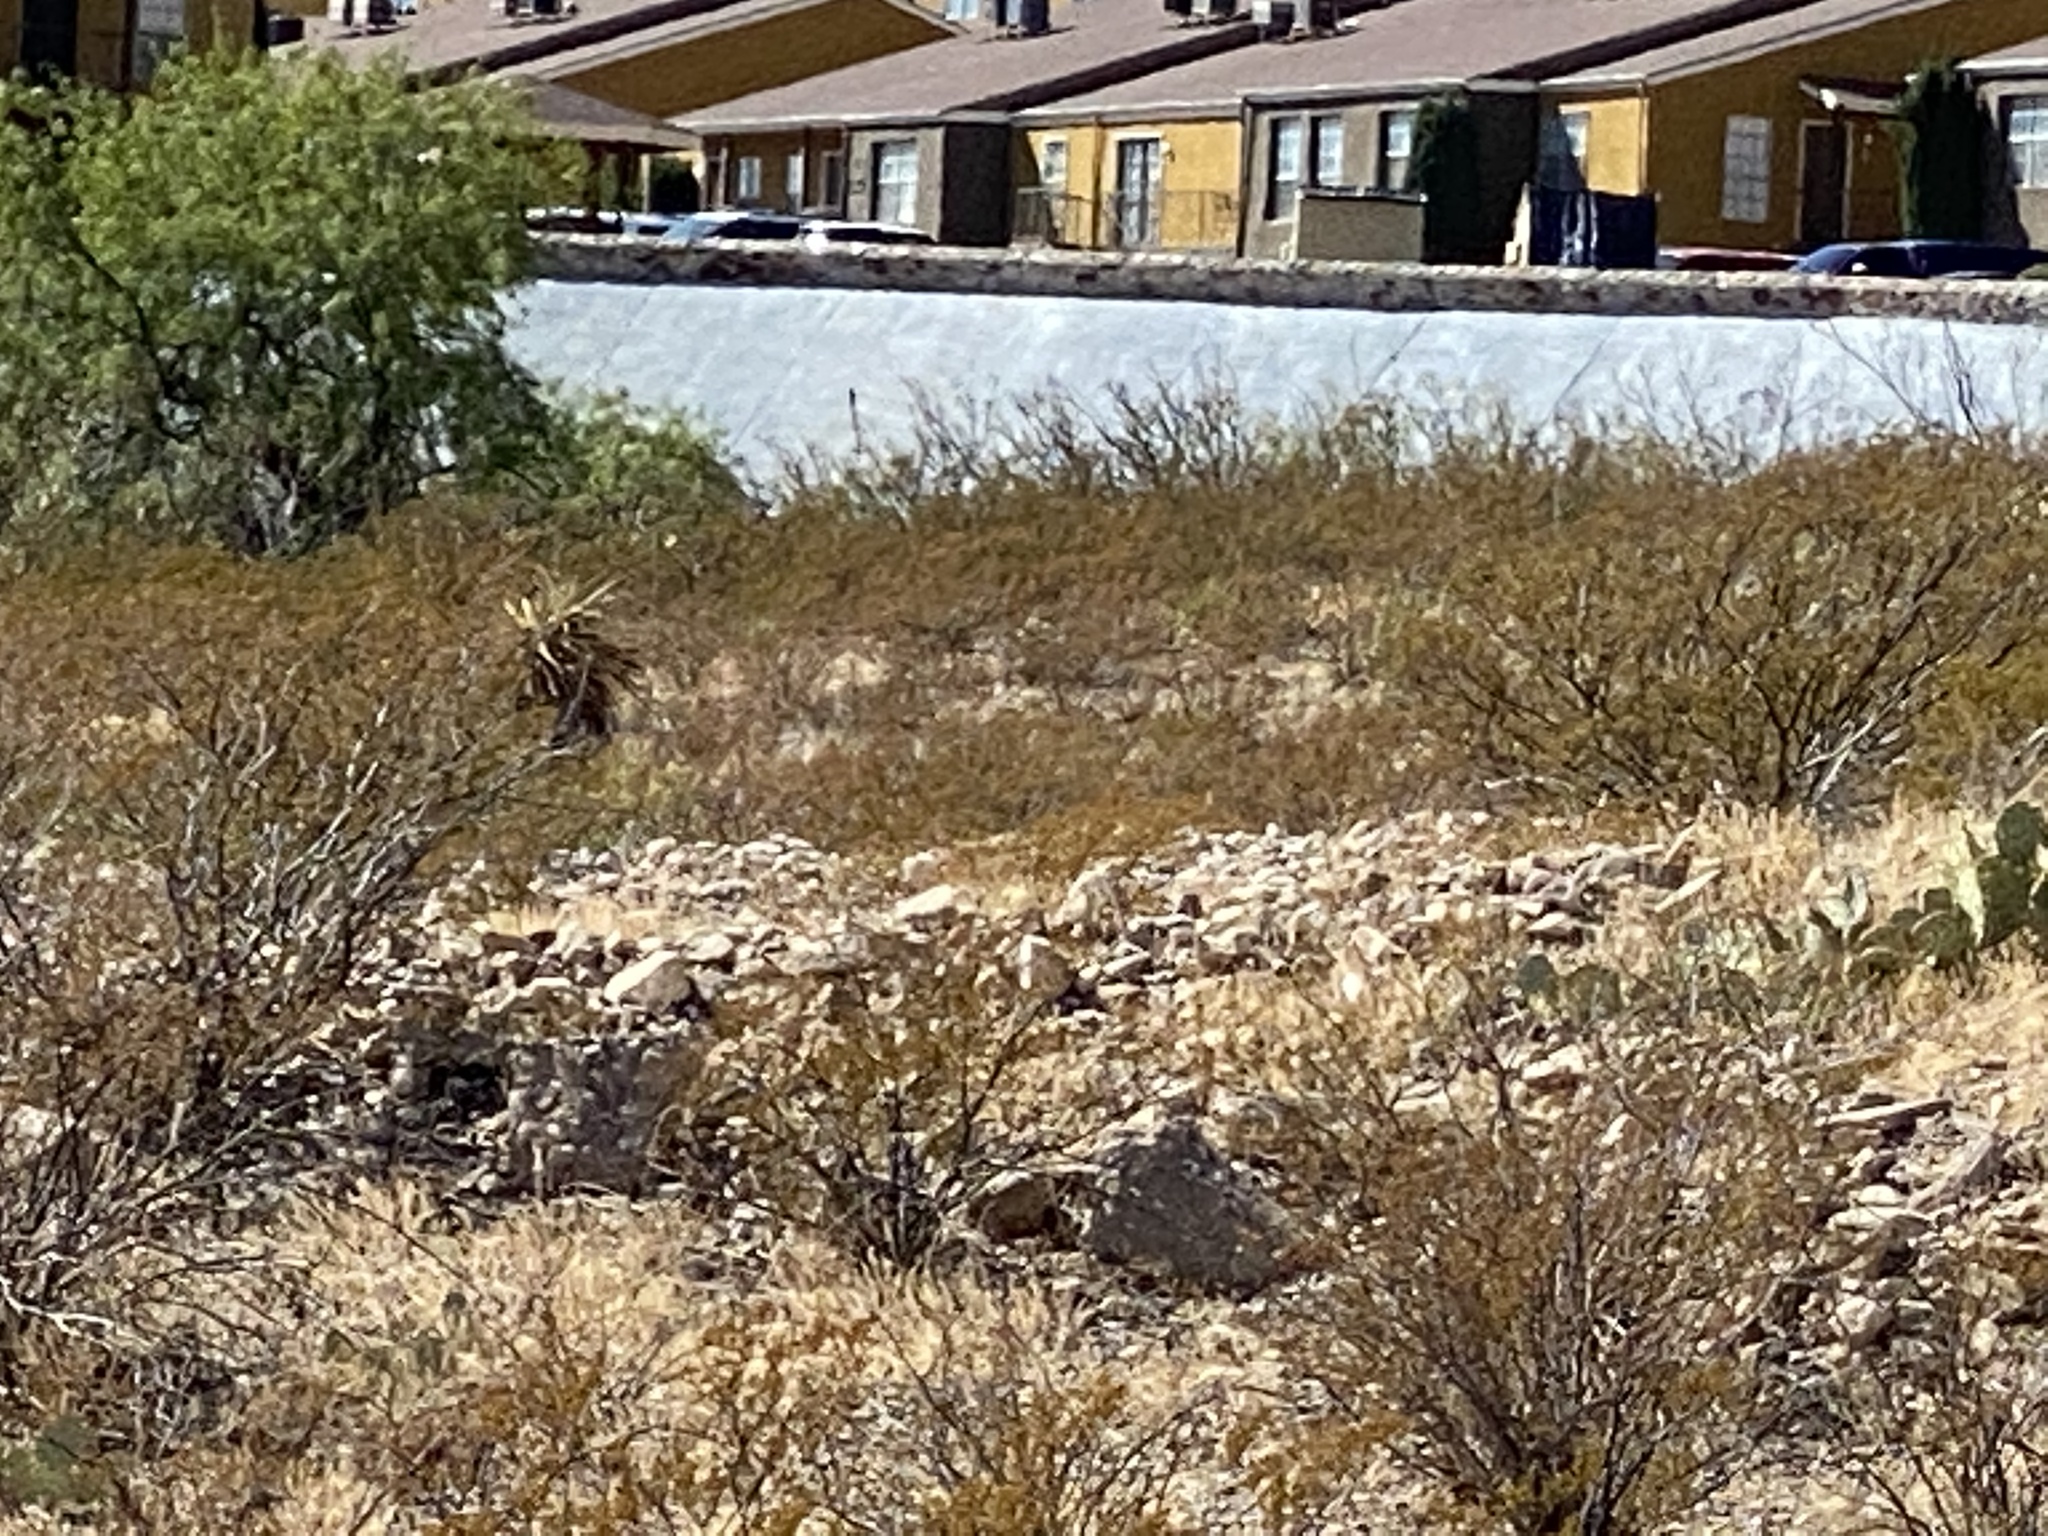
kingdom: Plantae
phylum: Tracheophyta
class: Magnoliopsida
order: Zygophyllales
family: Zygophyllaceae
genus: Larrea
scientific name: Larrea tridentata
